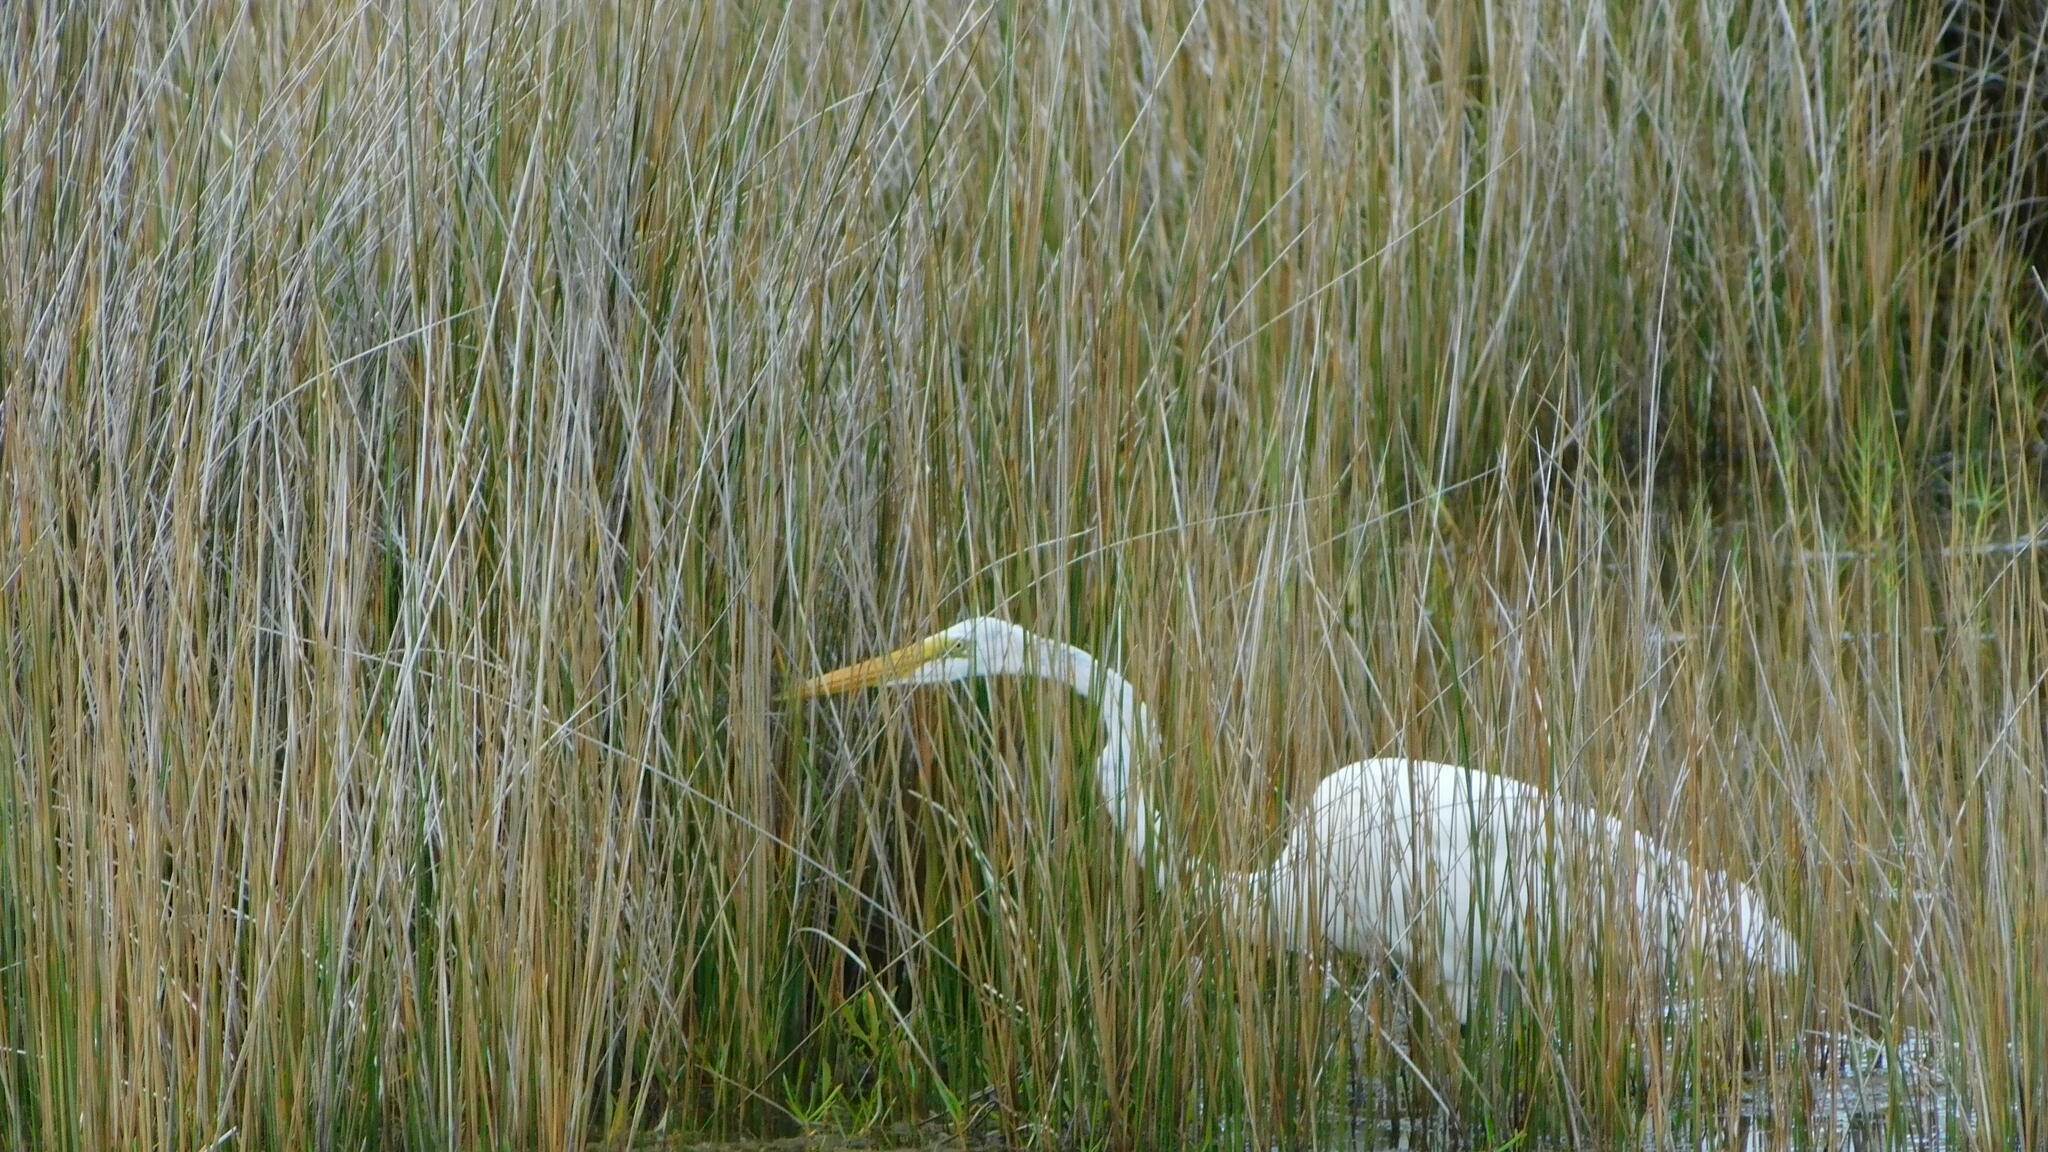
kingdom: Animalia
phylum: Chordata
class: Aves
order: Pelecaniformes
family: Ardeidae
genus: Ardea
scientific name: Ardea alba
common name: Great egret
